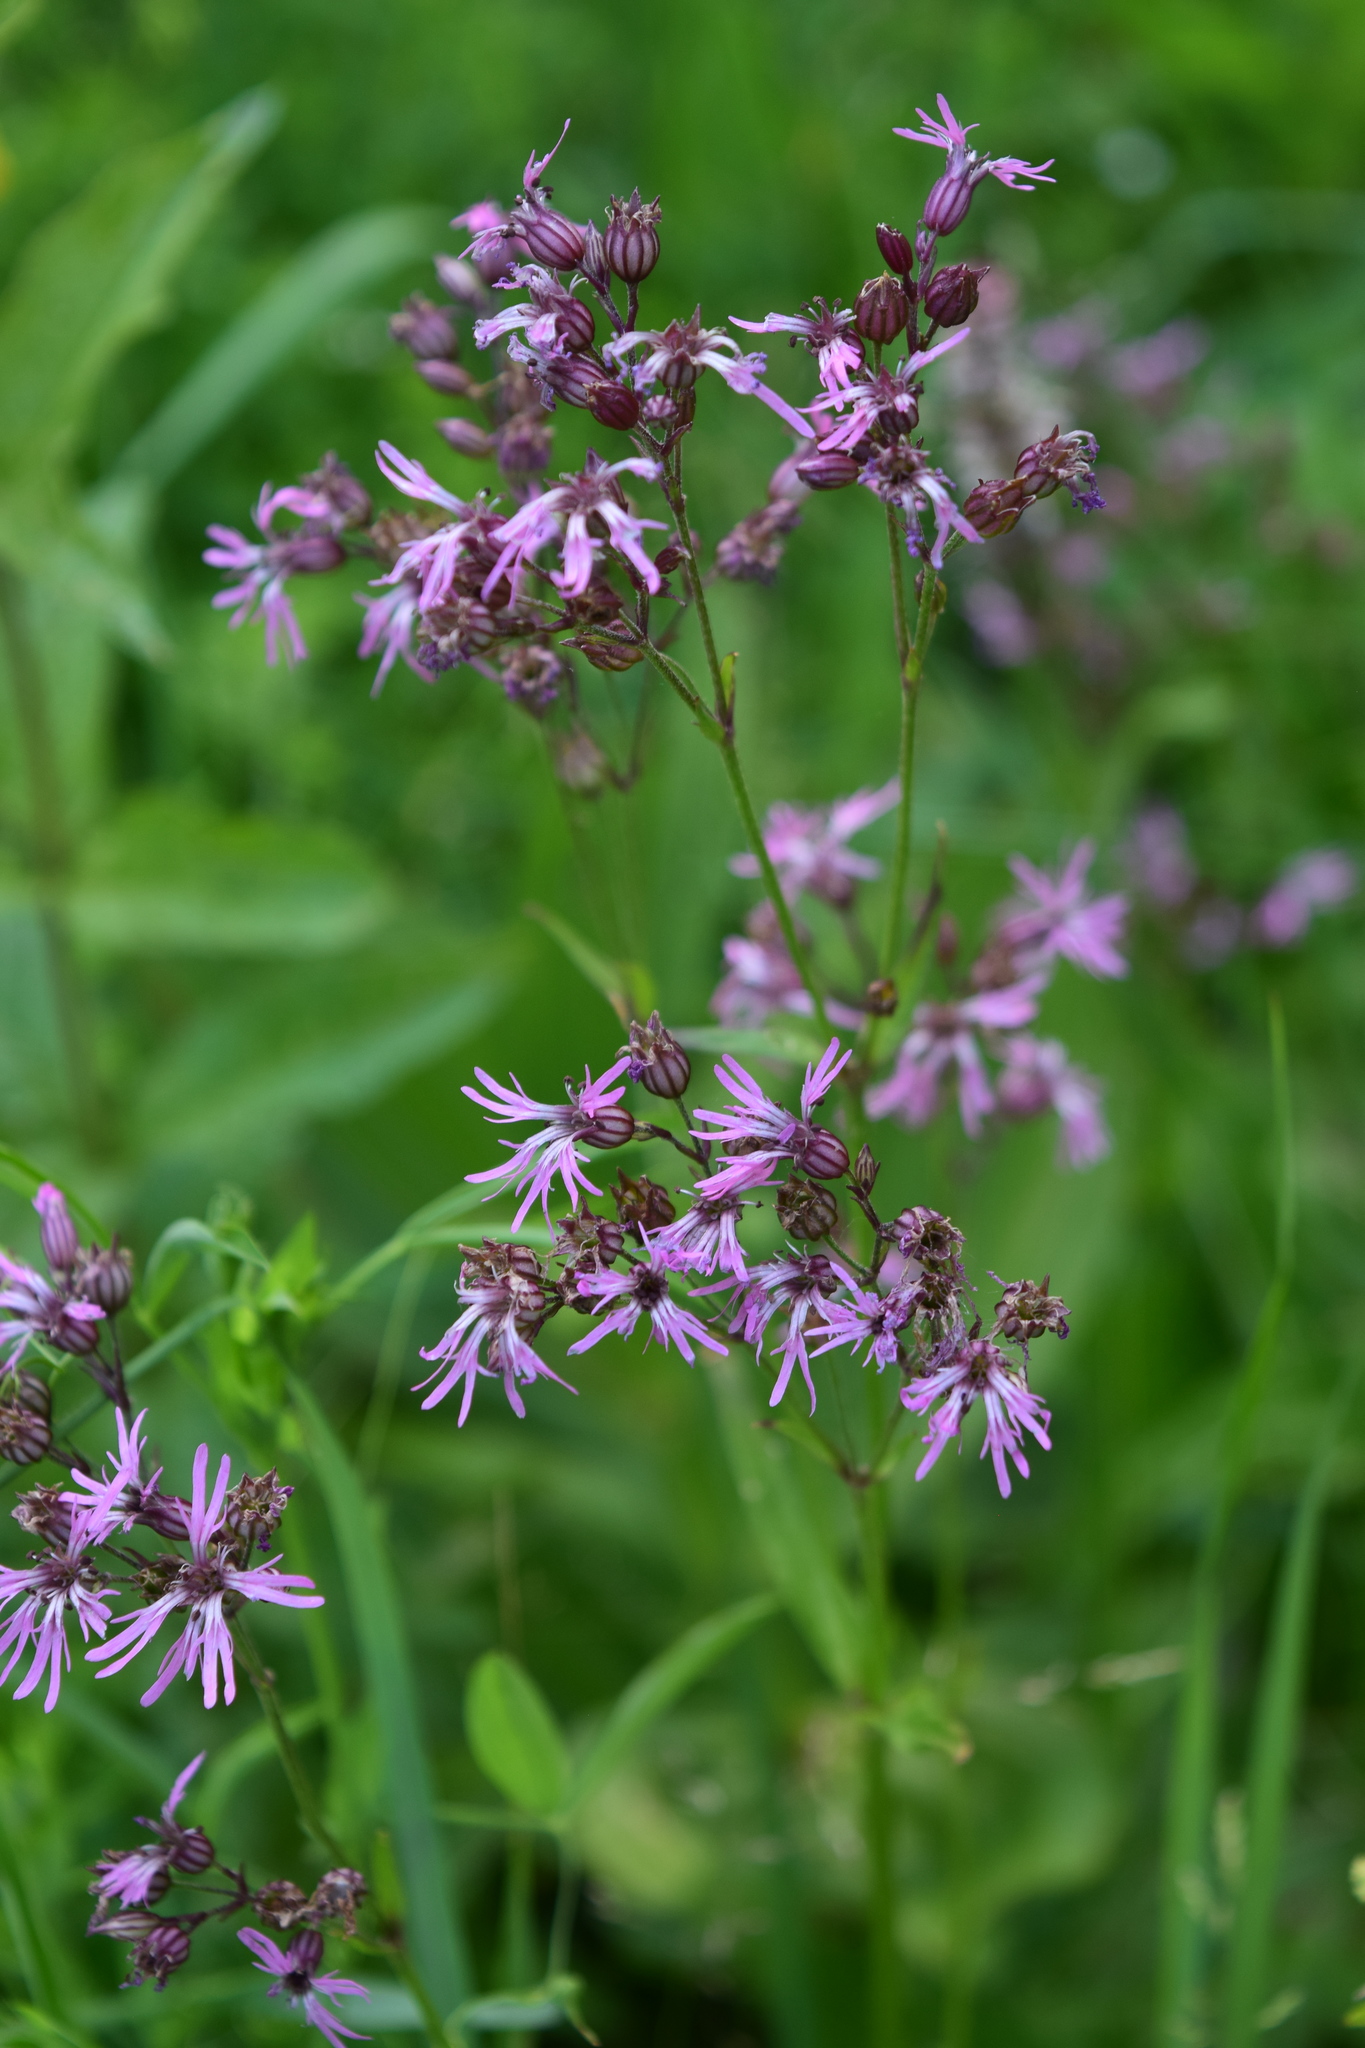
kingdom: Plantae
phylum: Tracheophyta
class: Magnoliopsida
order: Caryophyllales
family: Caryophyllaceae
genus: Silene
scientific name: Silene flos-cuculi
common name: Ragged-robin
